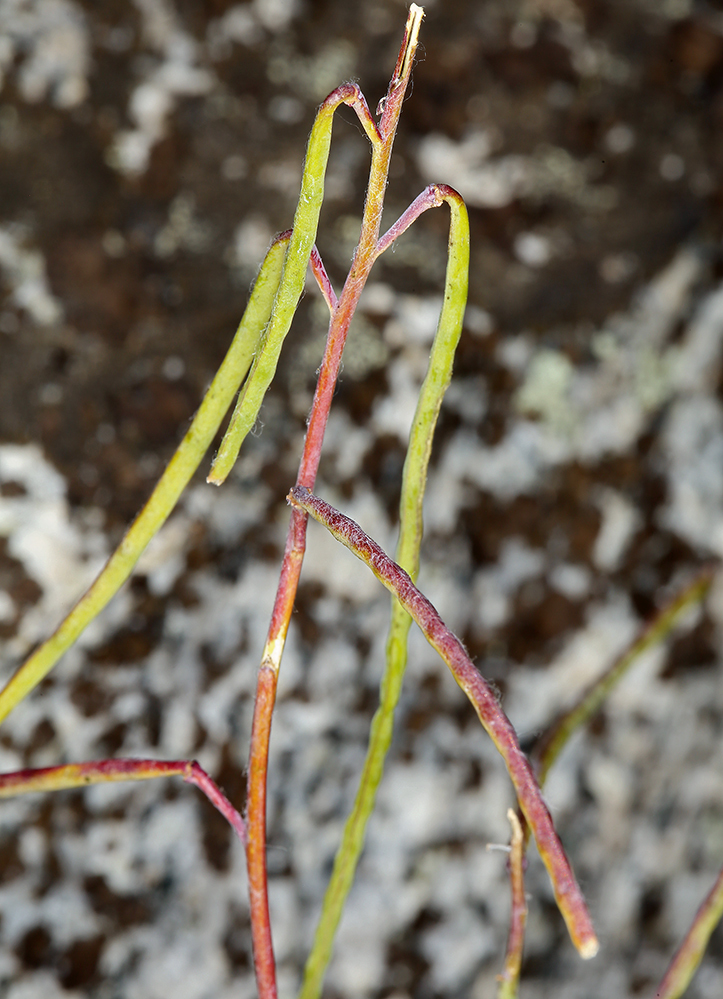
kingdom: Plantae
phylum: Tracheophyta
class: Magnoliopsida
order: Brassicales
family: Brassicaceae
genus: Streptanthus
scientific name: Streptanthus fenestratus
